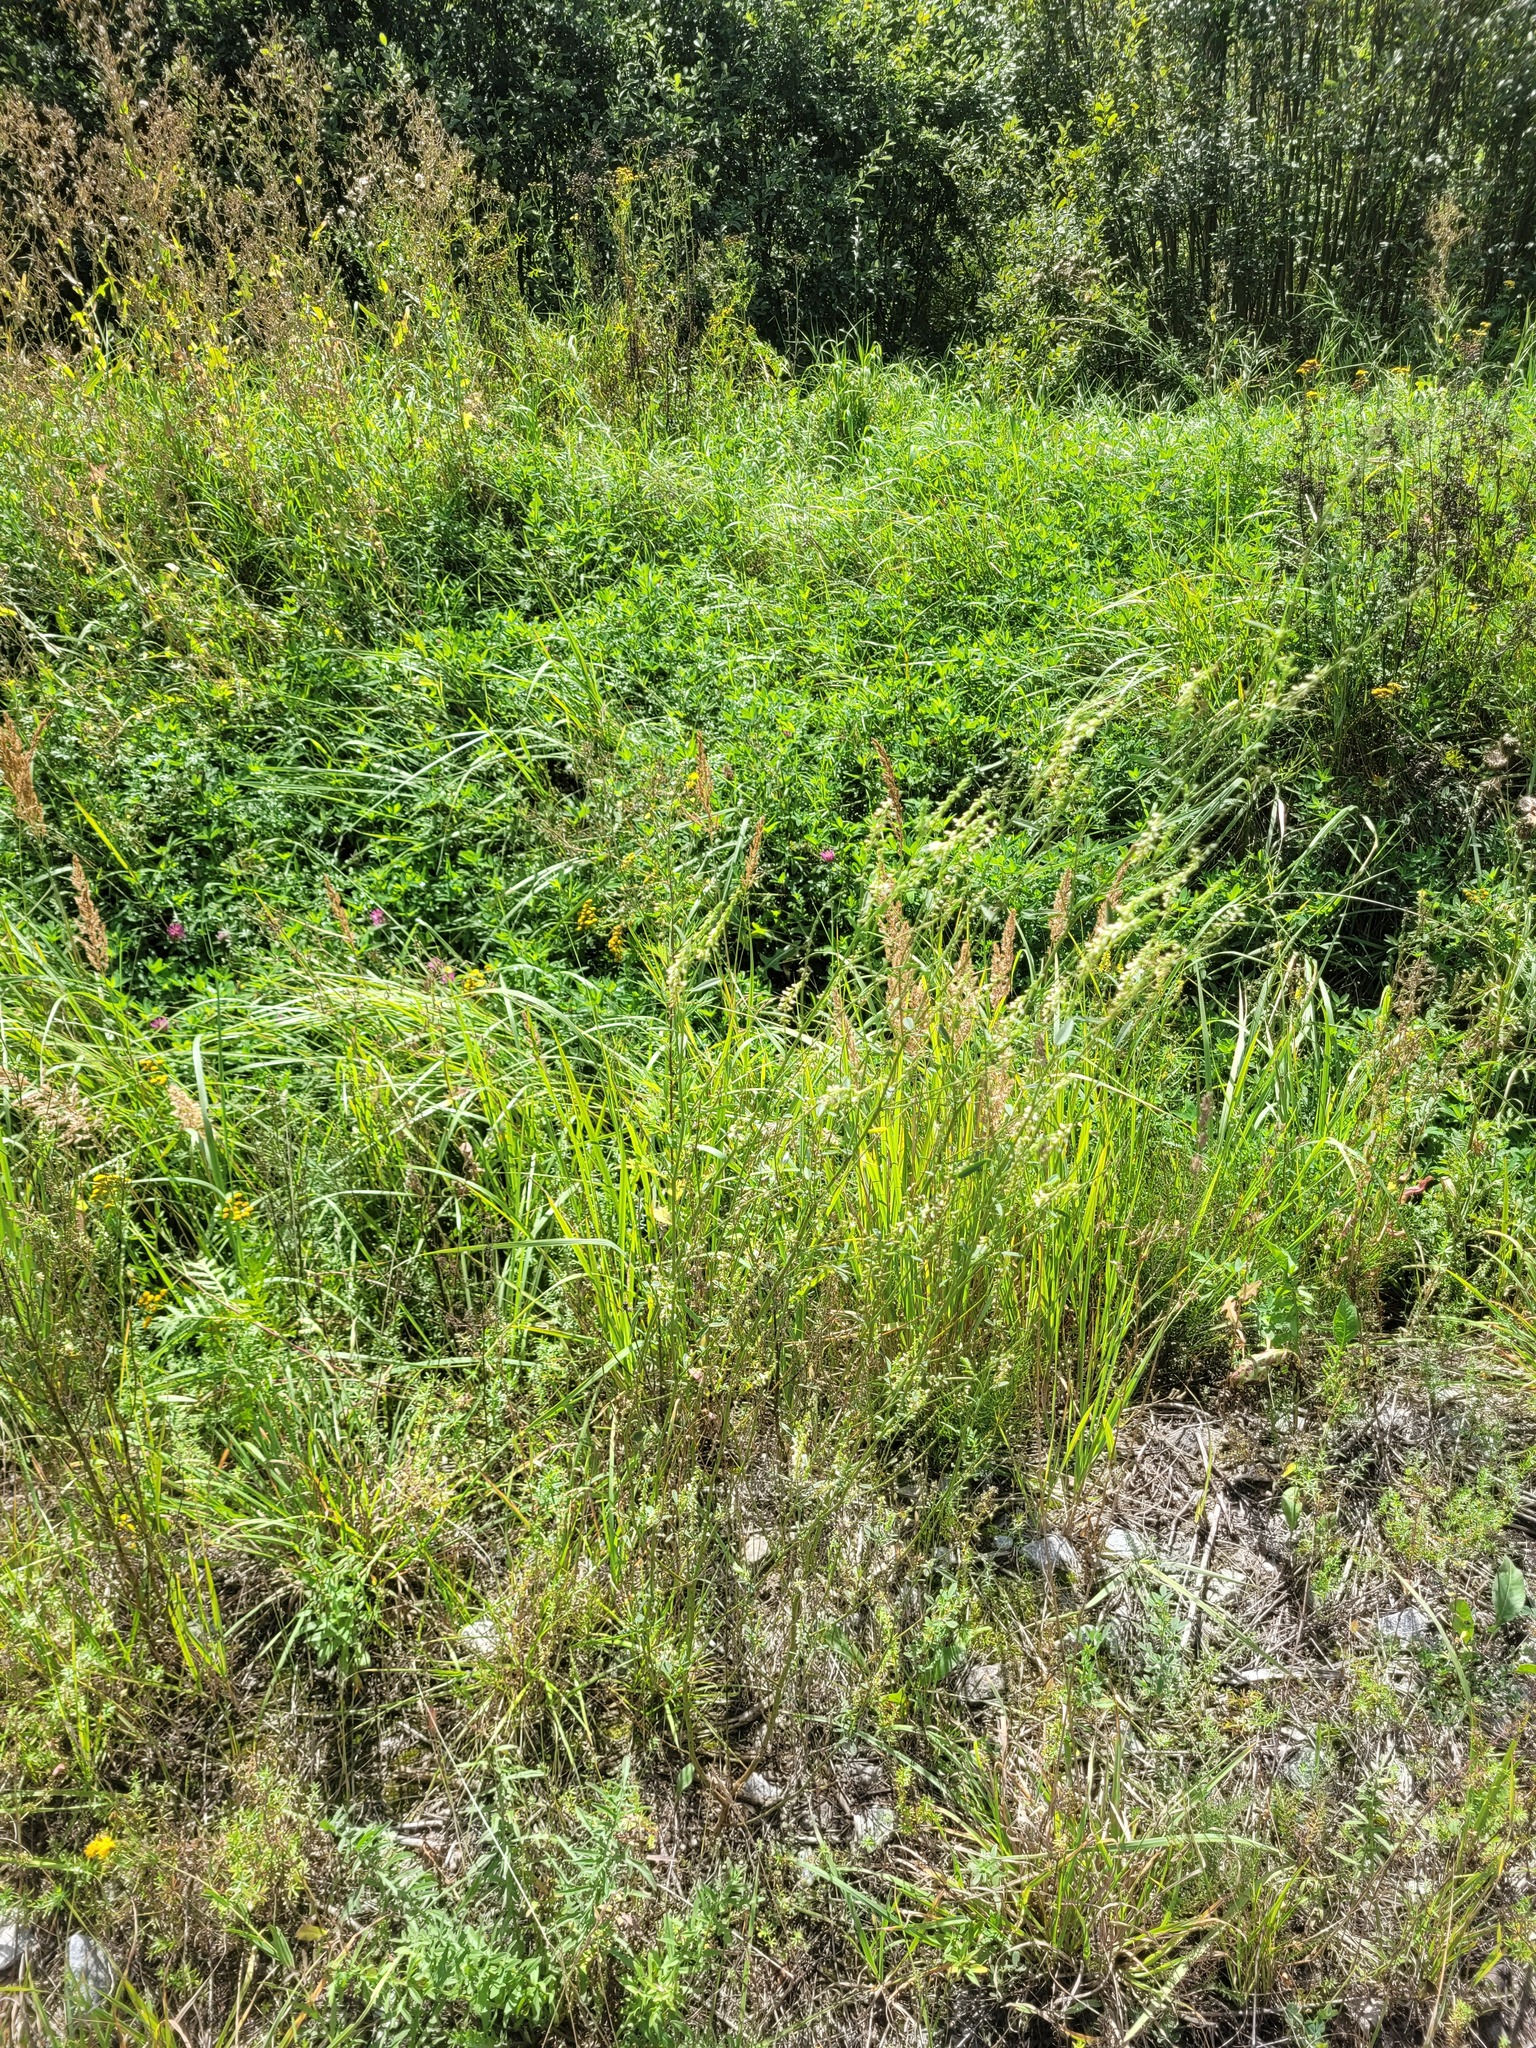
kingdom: Plantae
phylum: Tracheophyta
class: Magnoliopsida
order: Fabales
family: Fabaceae
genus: Melilotus
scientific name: Melilotus albus
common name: White melilot
